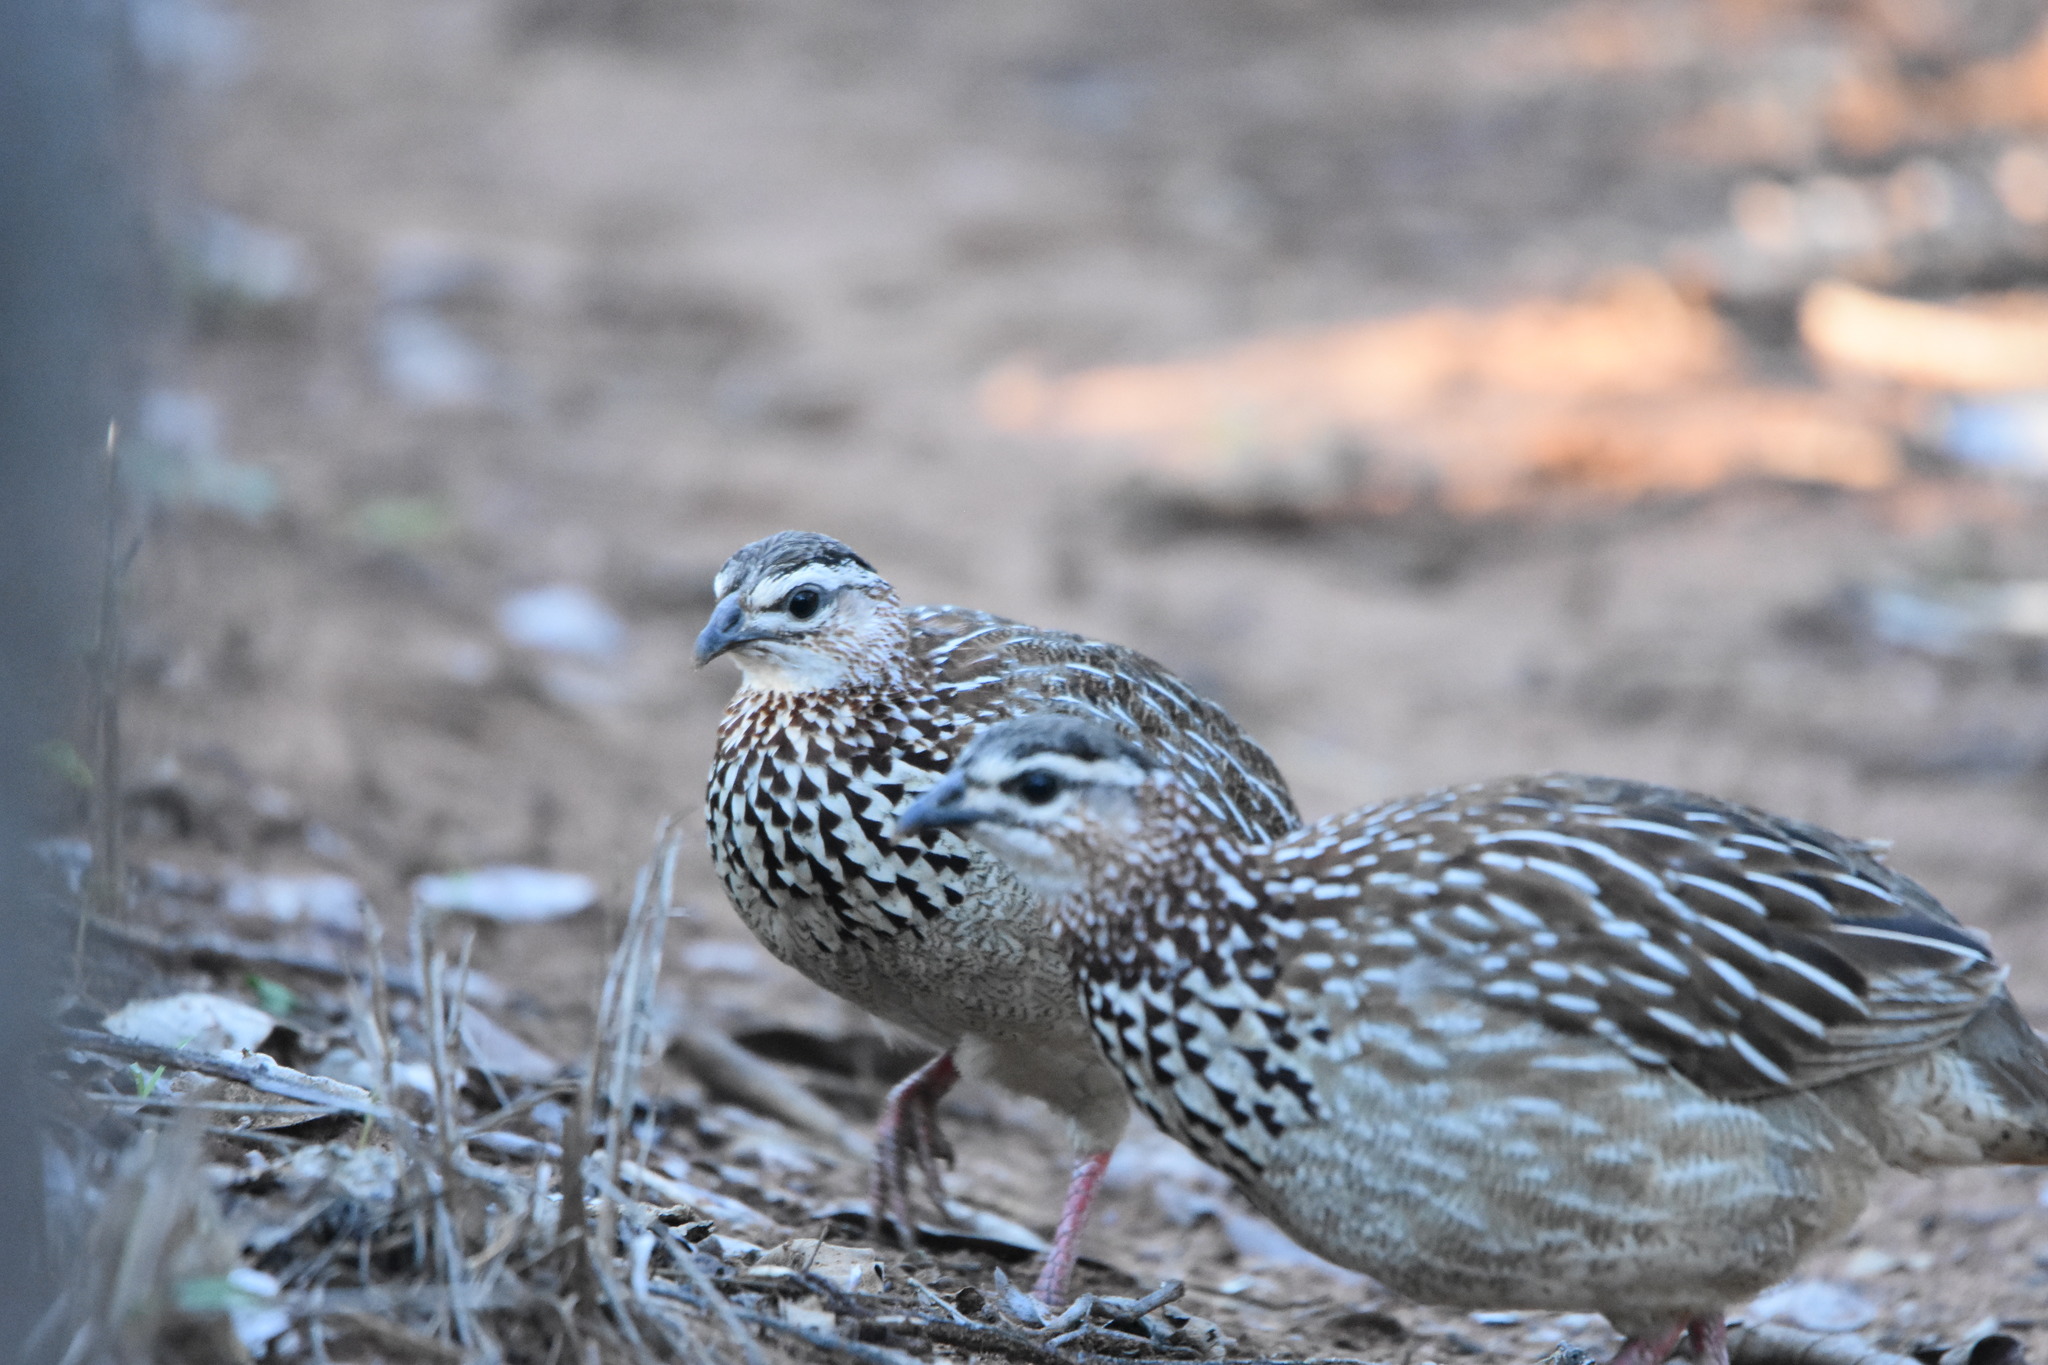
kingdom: Animalia
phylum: Chordata
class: Aves
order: Galliformes
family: Phasianidae
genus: Ortygornis
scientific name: Ortygornis sephaena
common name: Crested francolin
